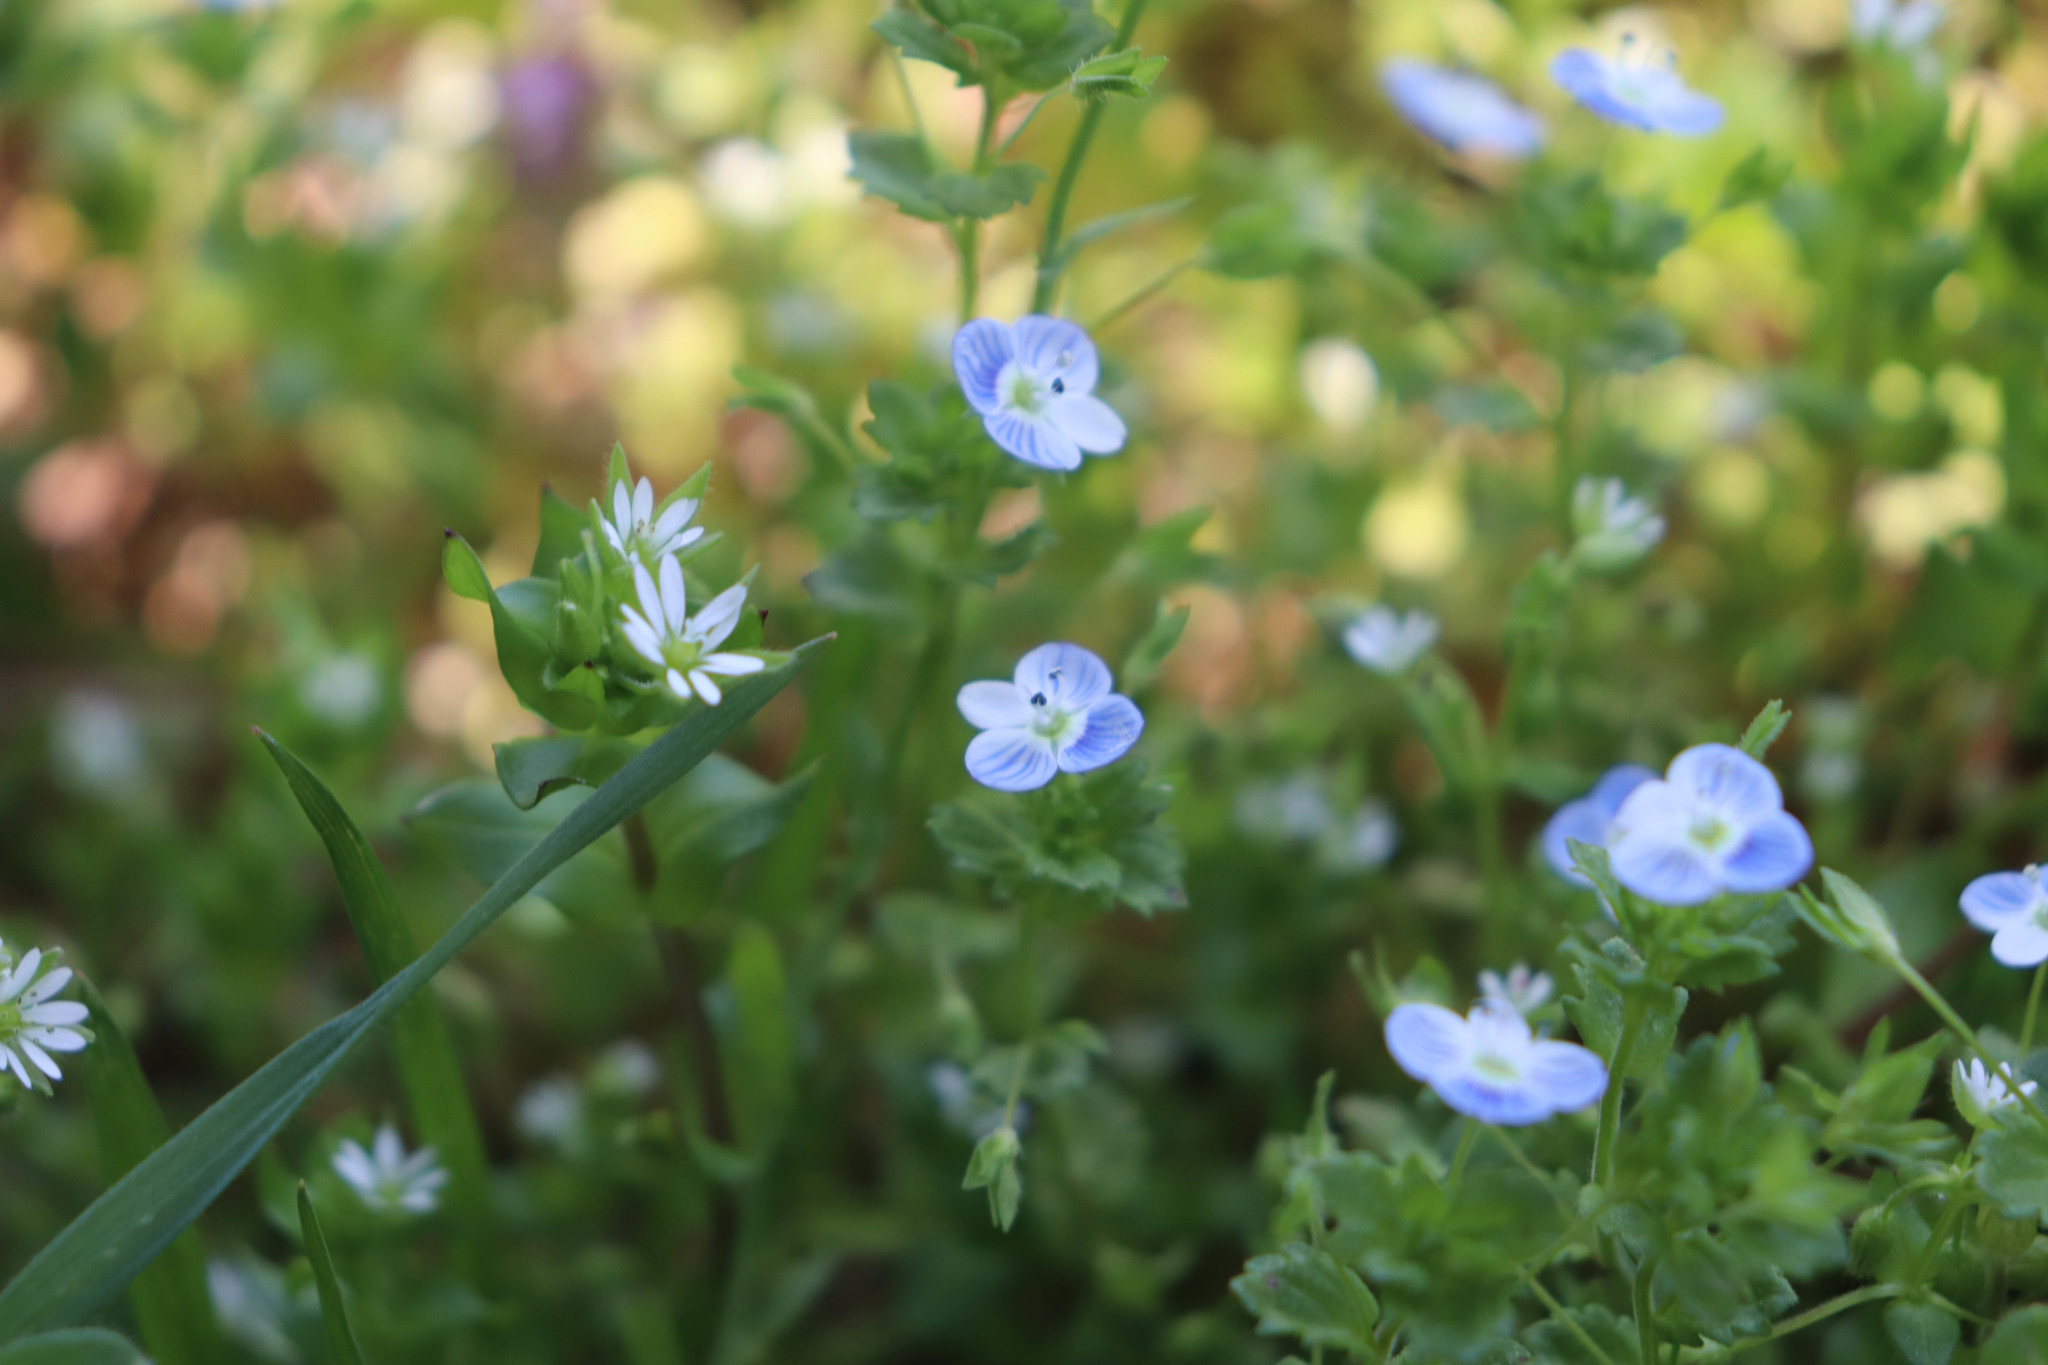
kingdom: Plantae
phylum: Tracheophyta
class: Magnoliopsida
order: Lamiales
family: Plantaginaceae
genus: Veronica
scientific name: Veronica persica
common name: Common field-speedwell
